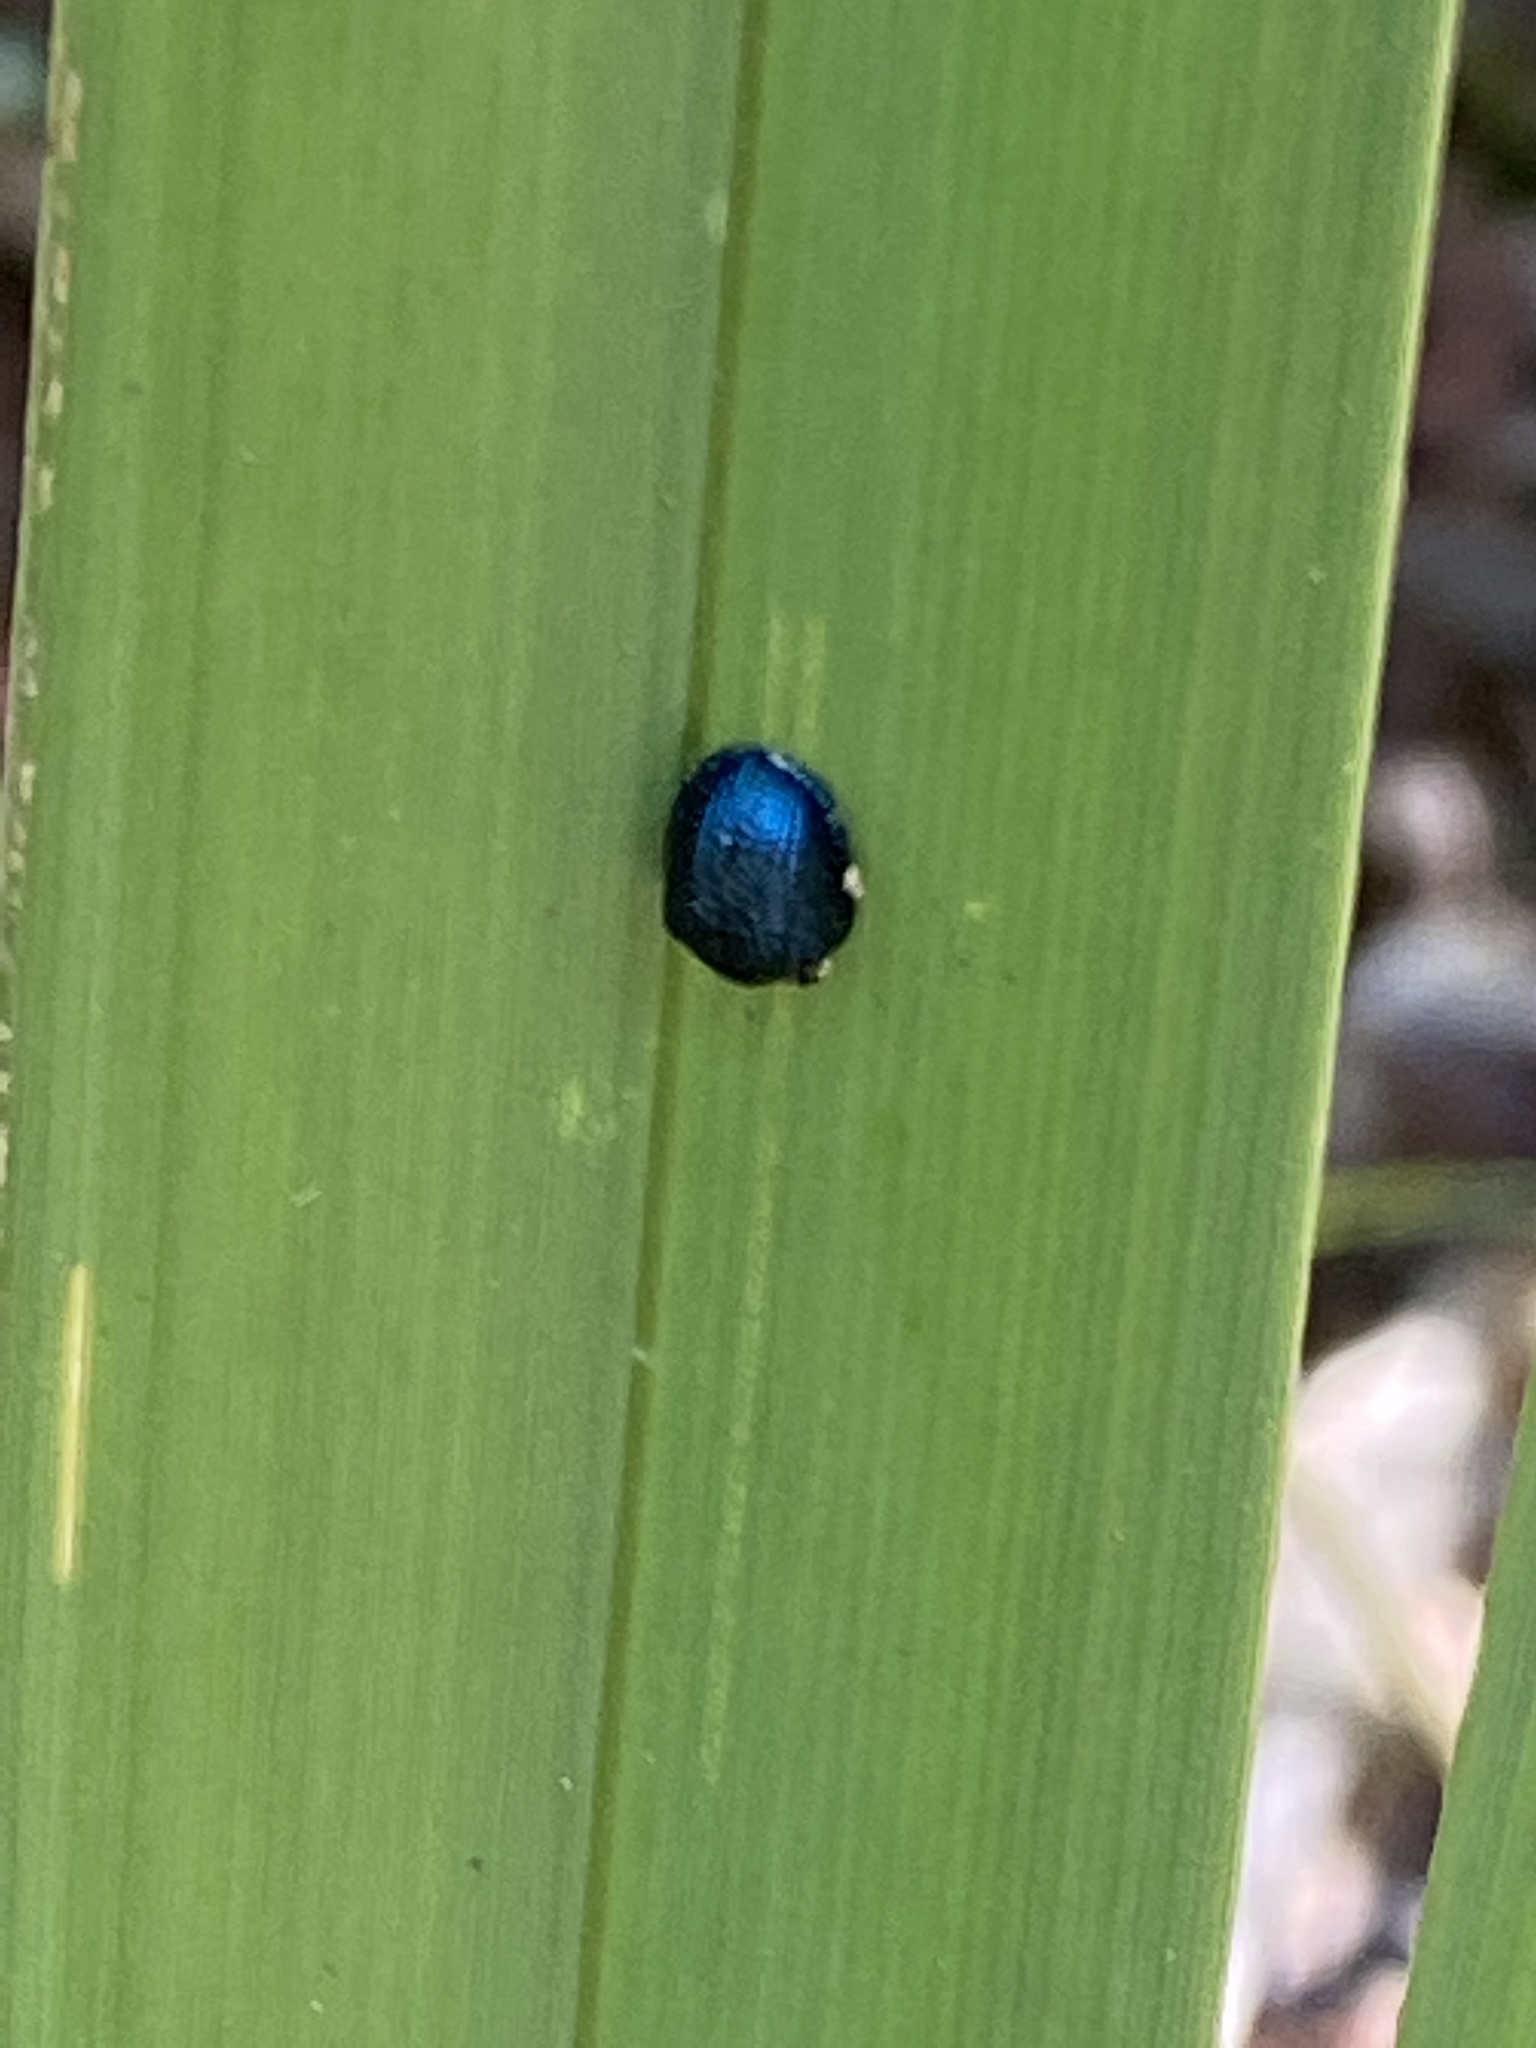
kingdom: Animalia
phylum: Arthropoda
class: Insecta
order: Coleoptera
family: Chrysomelidae
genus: Hemisphaerota
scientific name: Hemisphaerota cyanea
